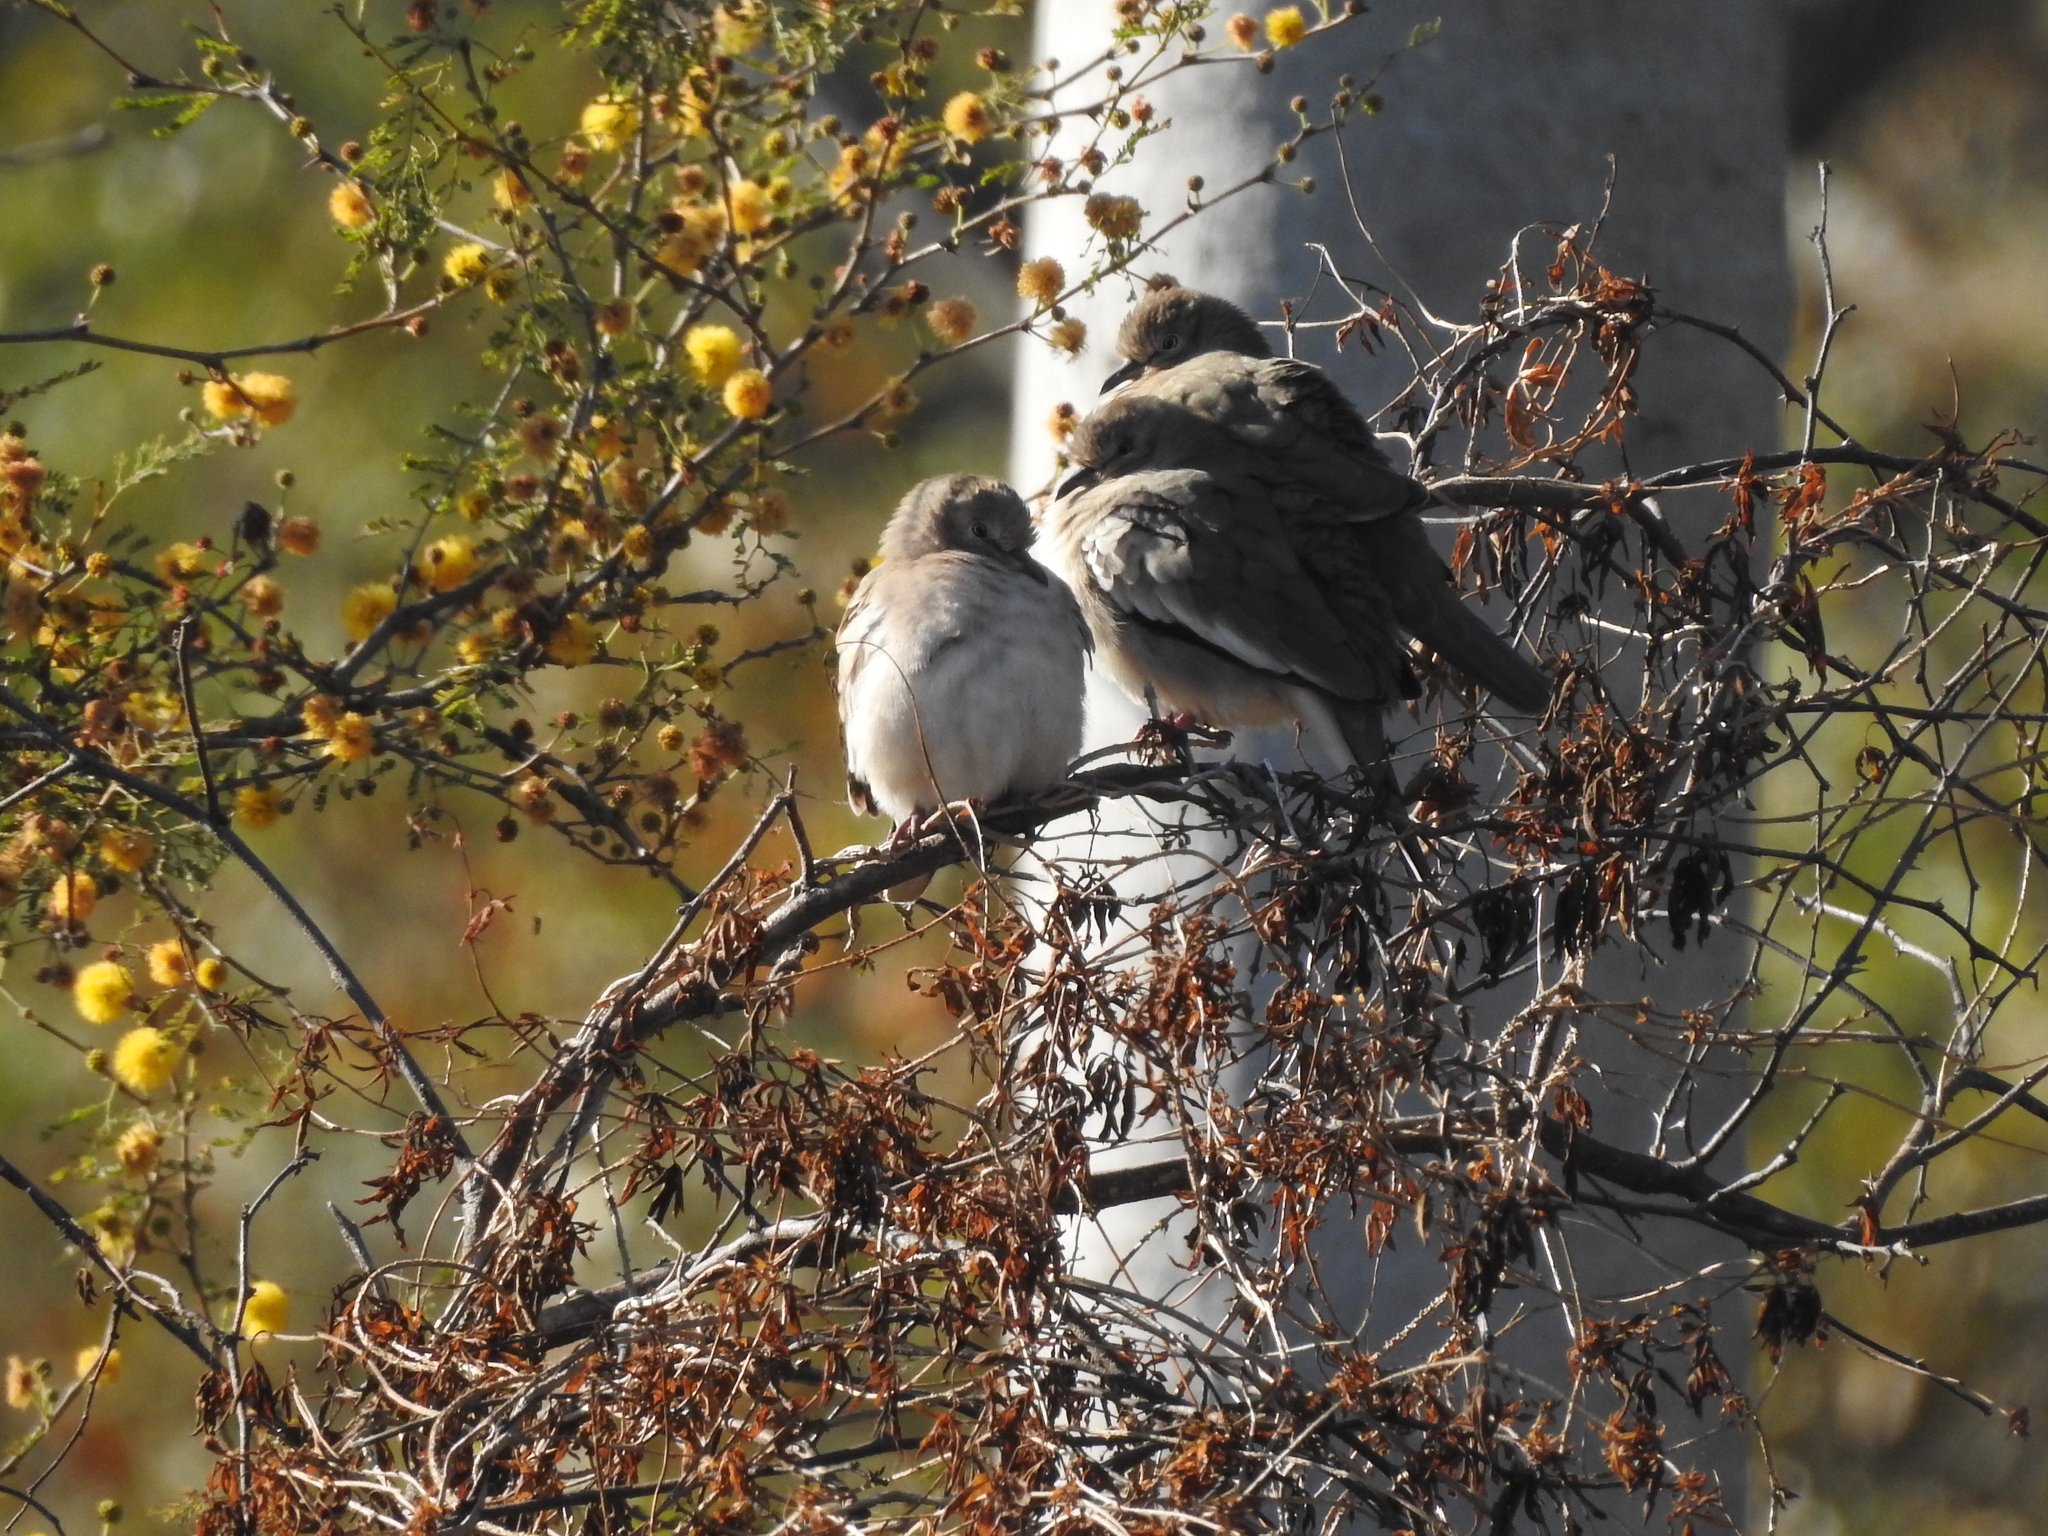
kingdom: Animalia
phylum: Chordata
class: Aves
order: Columbiformes
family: Columbidae
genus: Columbina
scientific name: Columbina picui
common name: Picui ground dove
